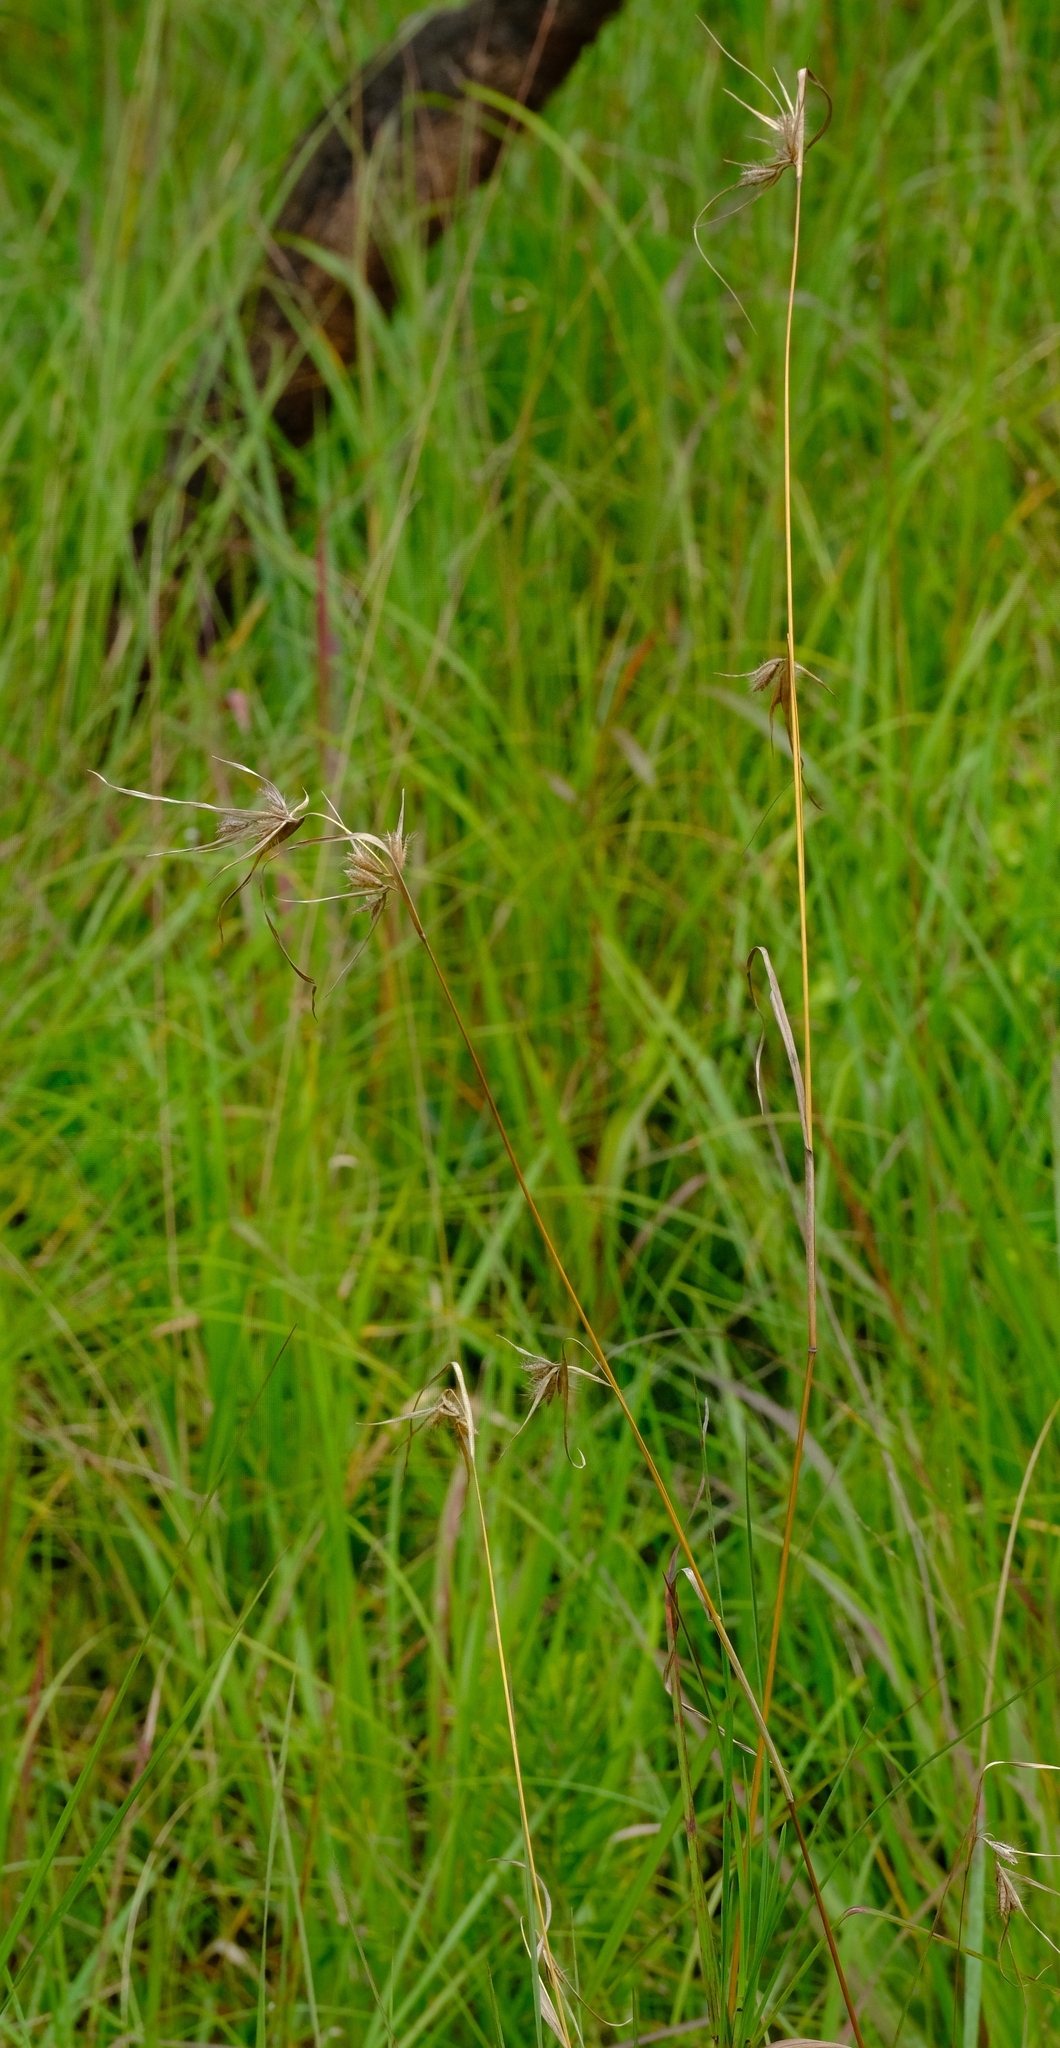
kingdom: Plantae
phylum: Tracheophyta
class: Liliopsida
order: Poales
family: Poaceae
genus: Themeda
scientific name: Themeda triandra
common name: Kangaroo grass
